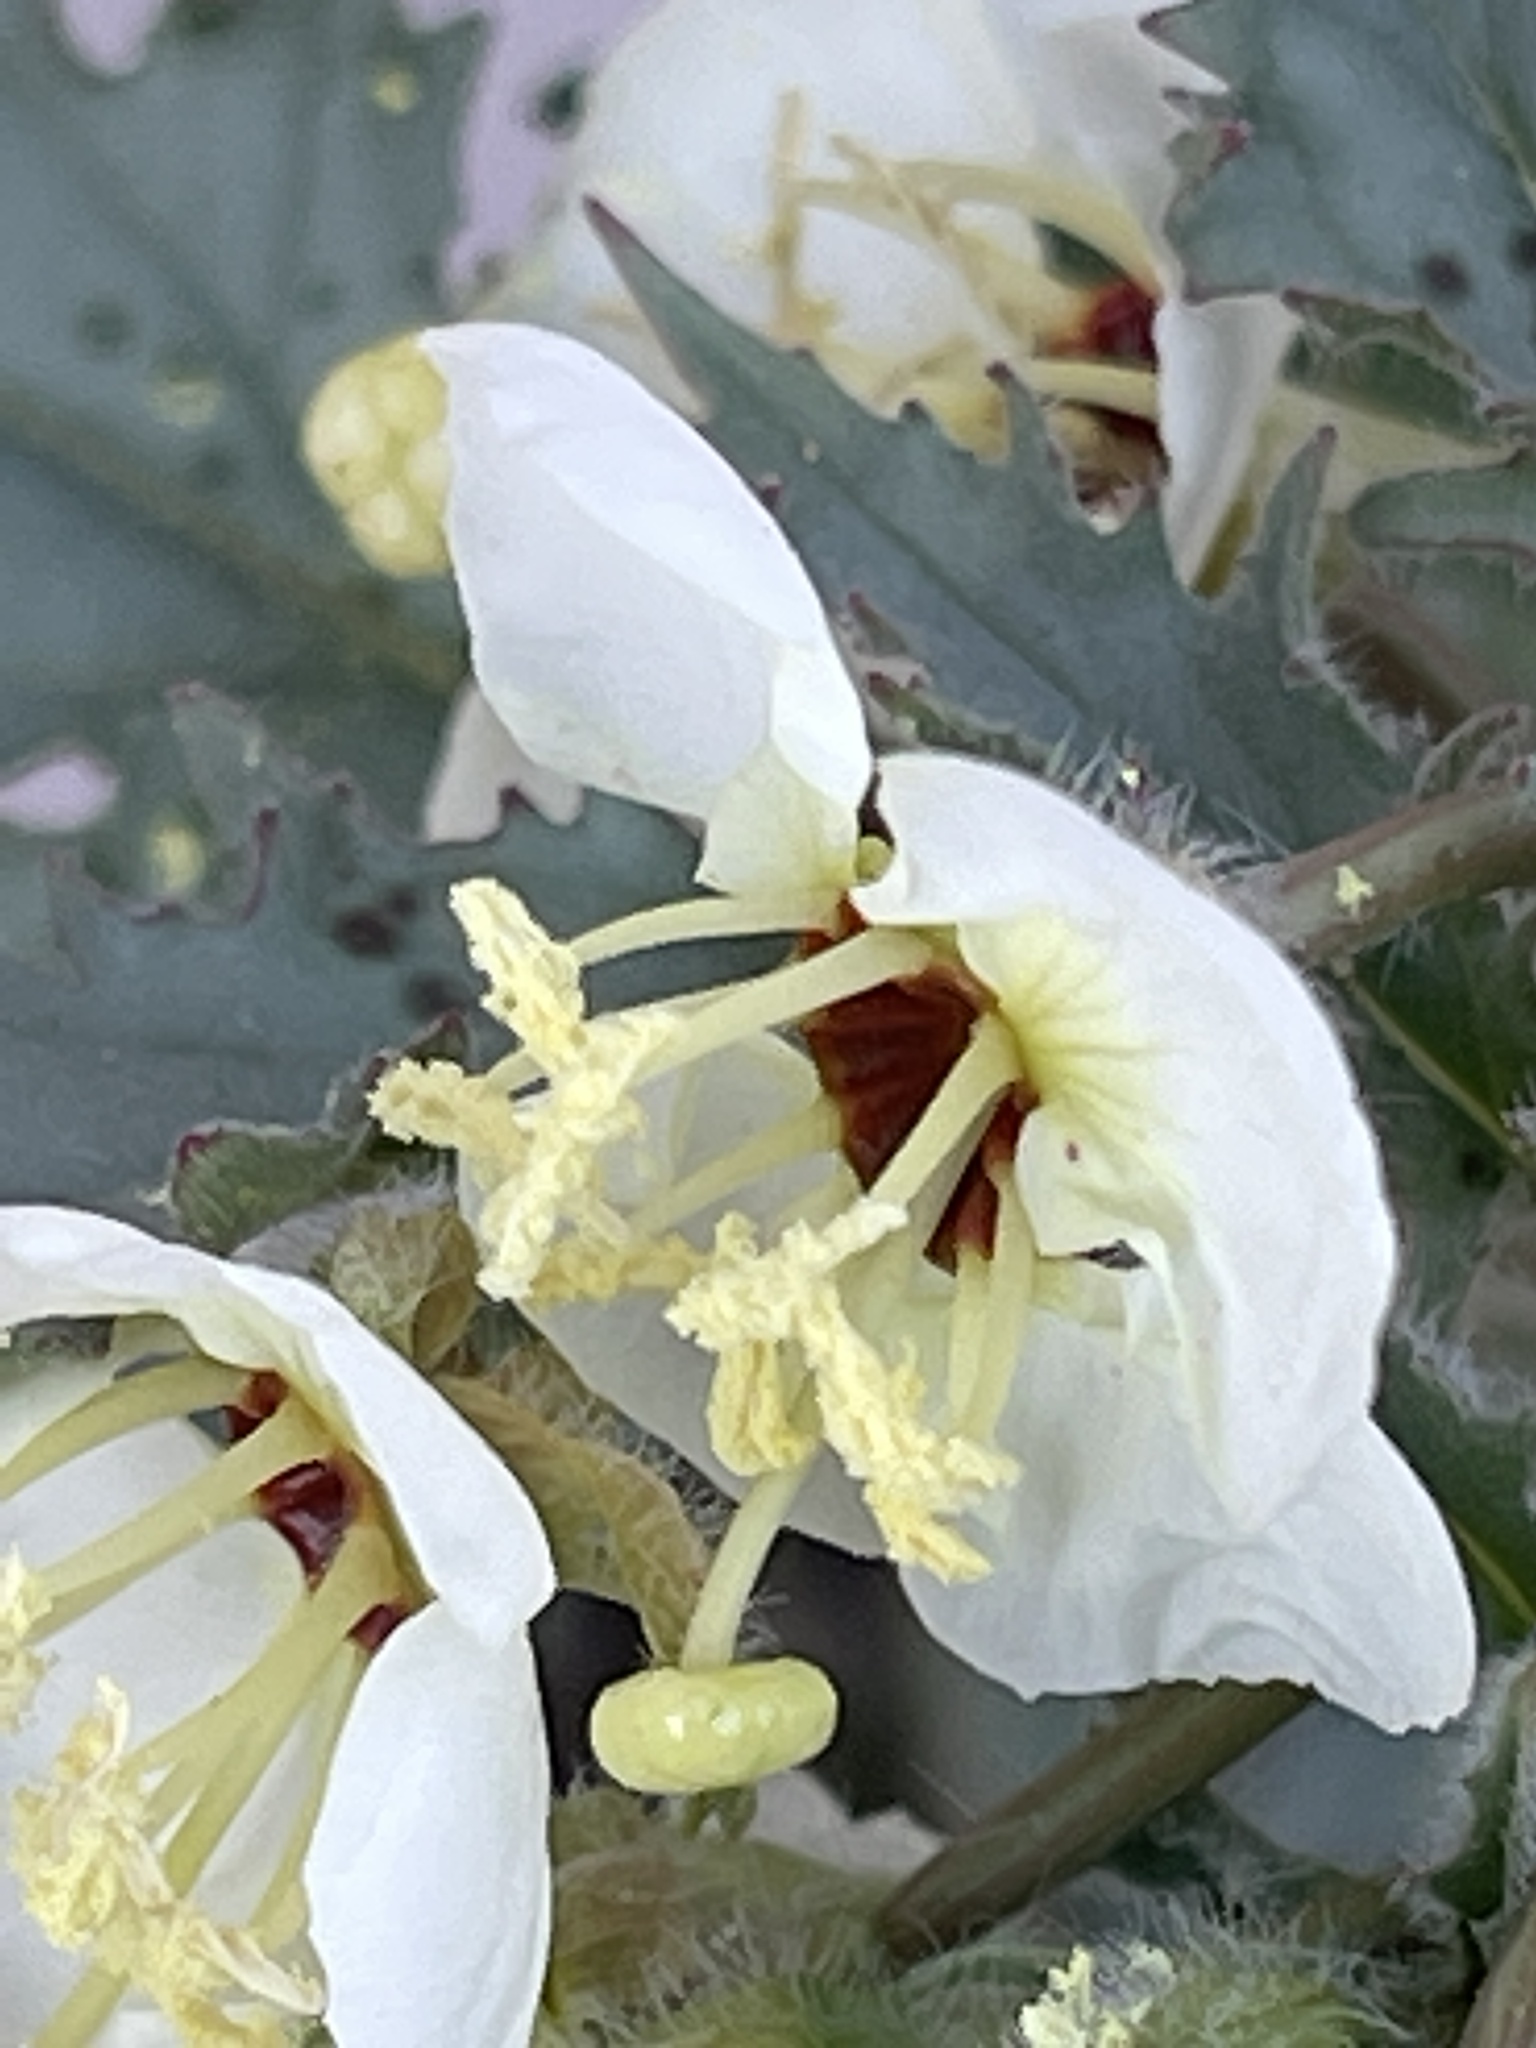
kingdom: Plantae
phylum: Tracheophyta
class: Magnoliopsida
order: Myrtales
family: Onagraceae
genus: Chylismia
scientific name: Chylismia claviformis
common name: Browneyes
